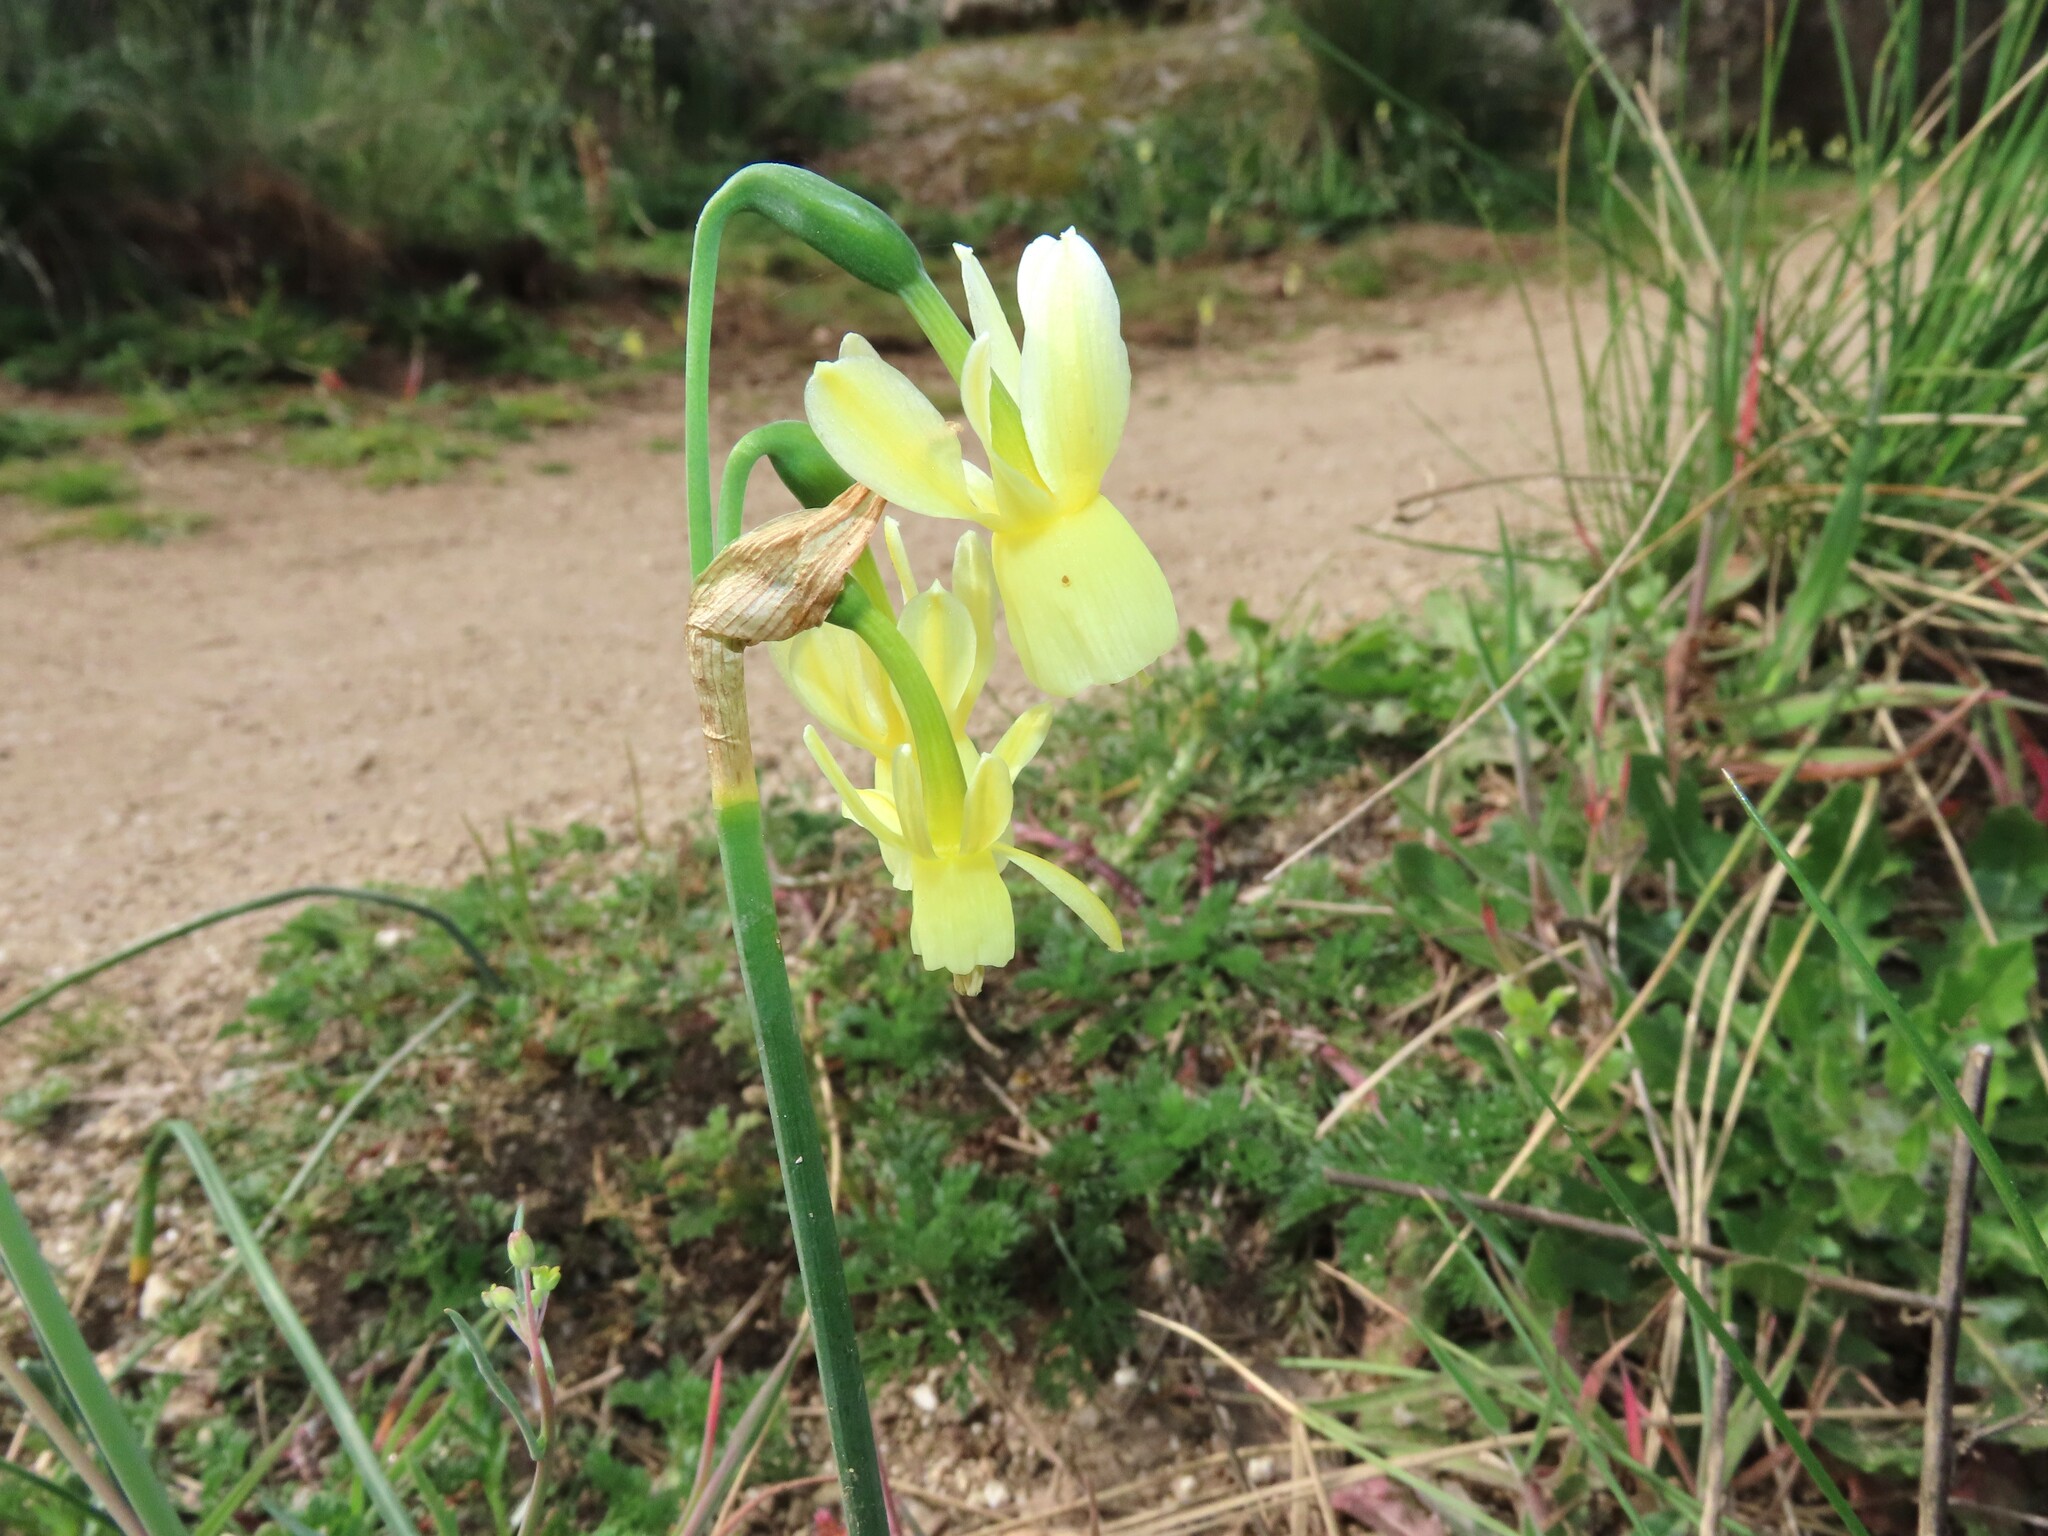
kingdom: Plantae
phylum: Tracheophyta
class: Liliopsida
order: Asparagales
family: Amaryllidaceae
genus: Narcissus
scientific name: Narcissus triandrus
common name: Angel's-tears
